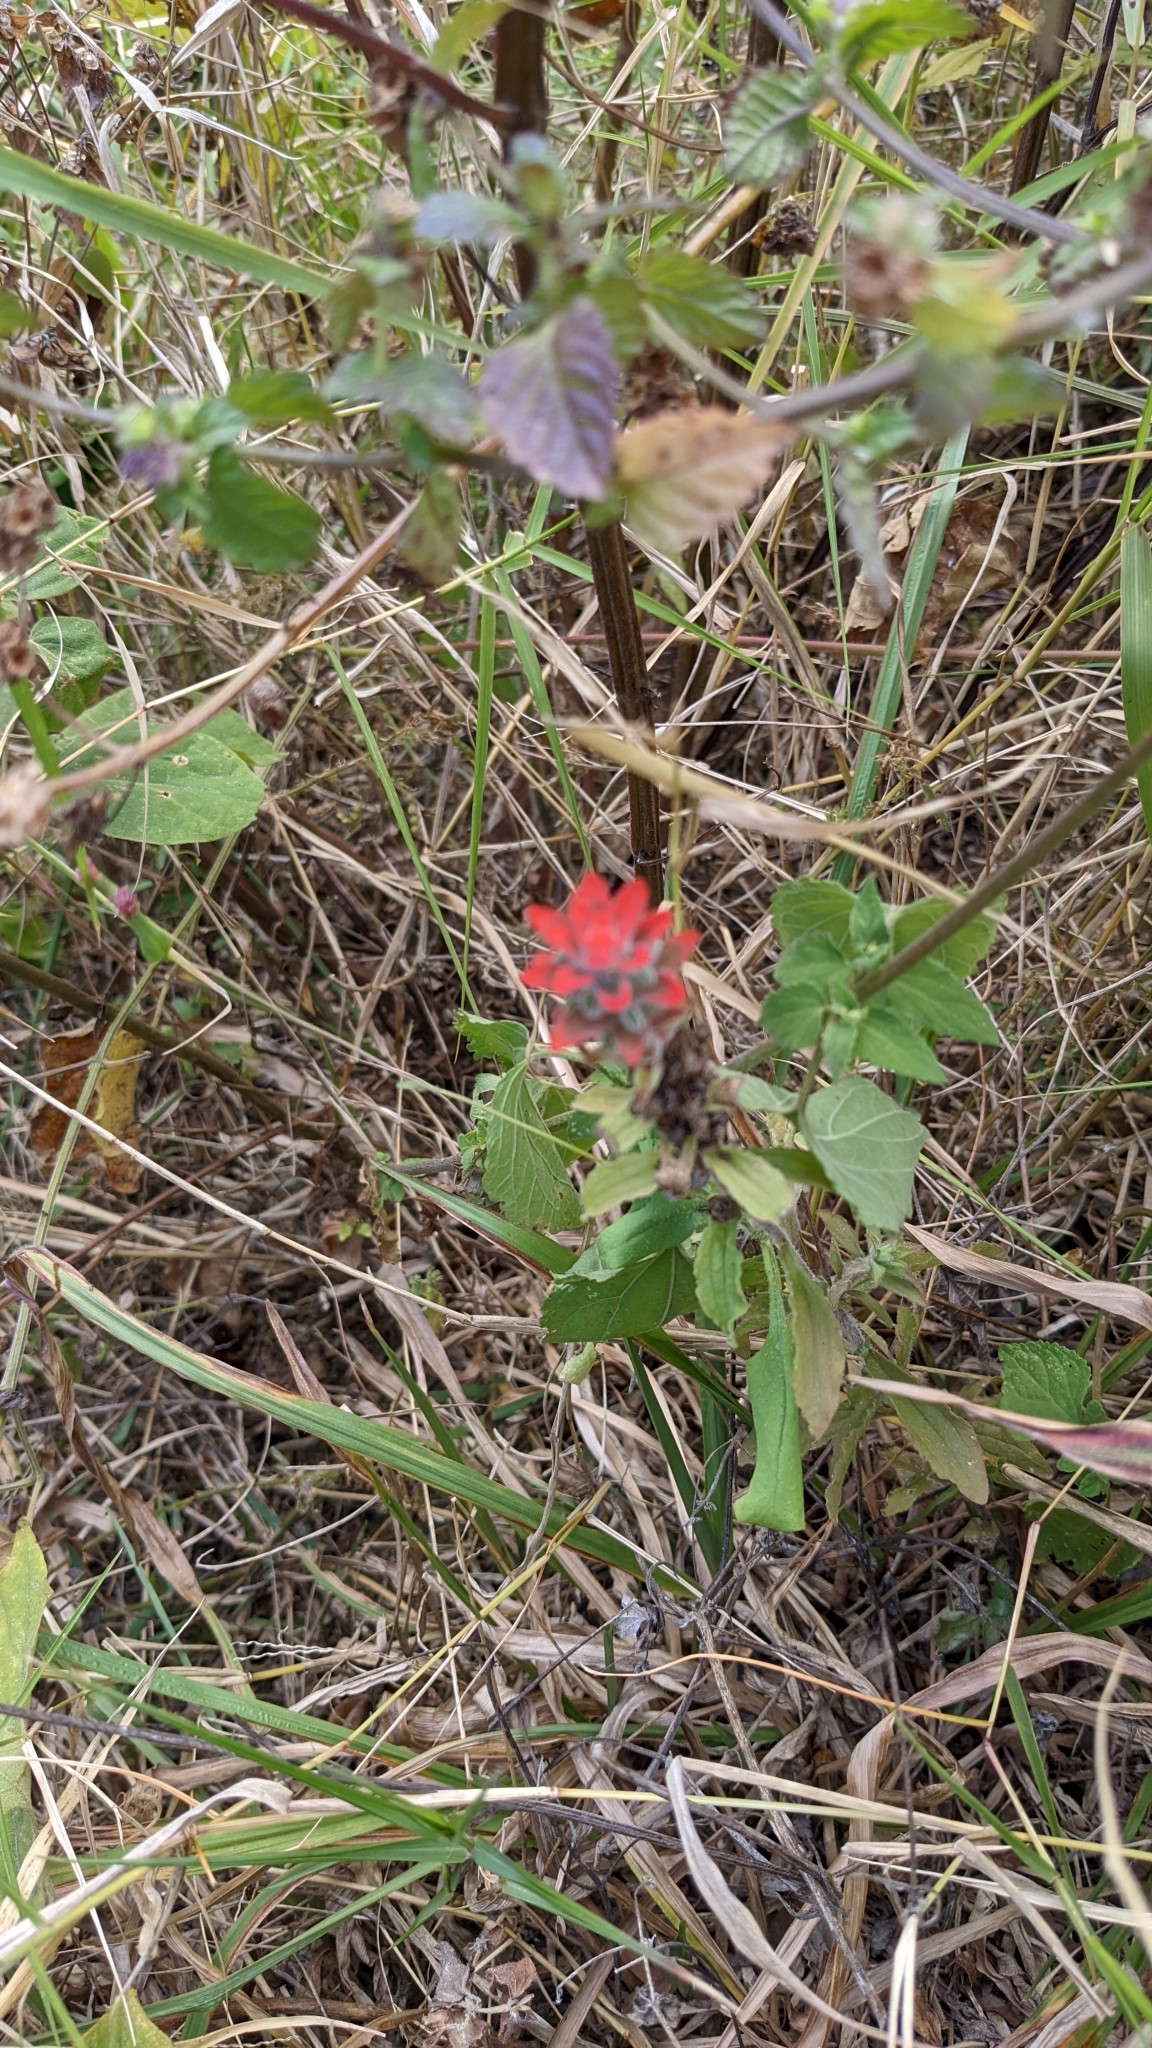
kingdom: Plantae
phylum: Tracheophyta
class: Magnoliopsida
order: Lamiales
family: Orobanchaceae
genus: Castilleja
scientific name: Castilleja arvensis
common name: Indian paintbrush
